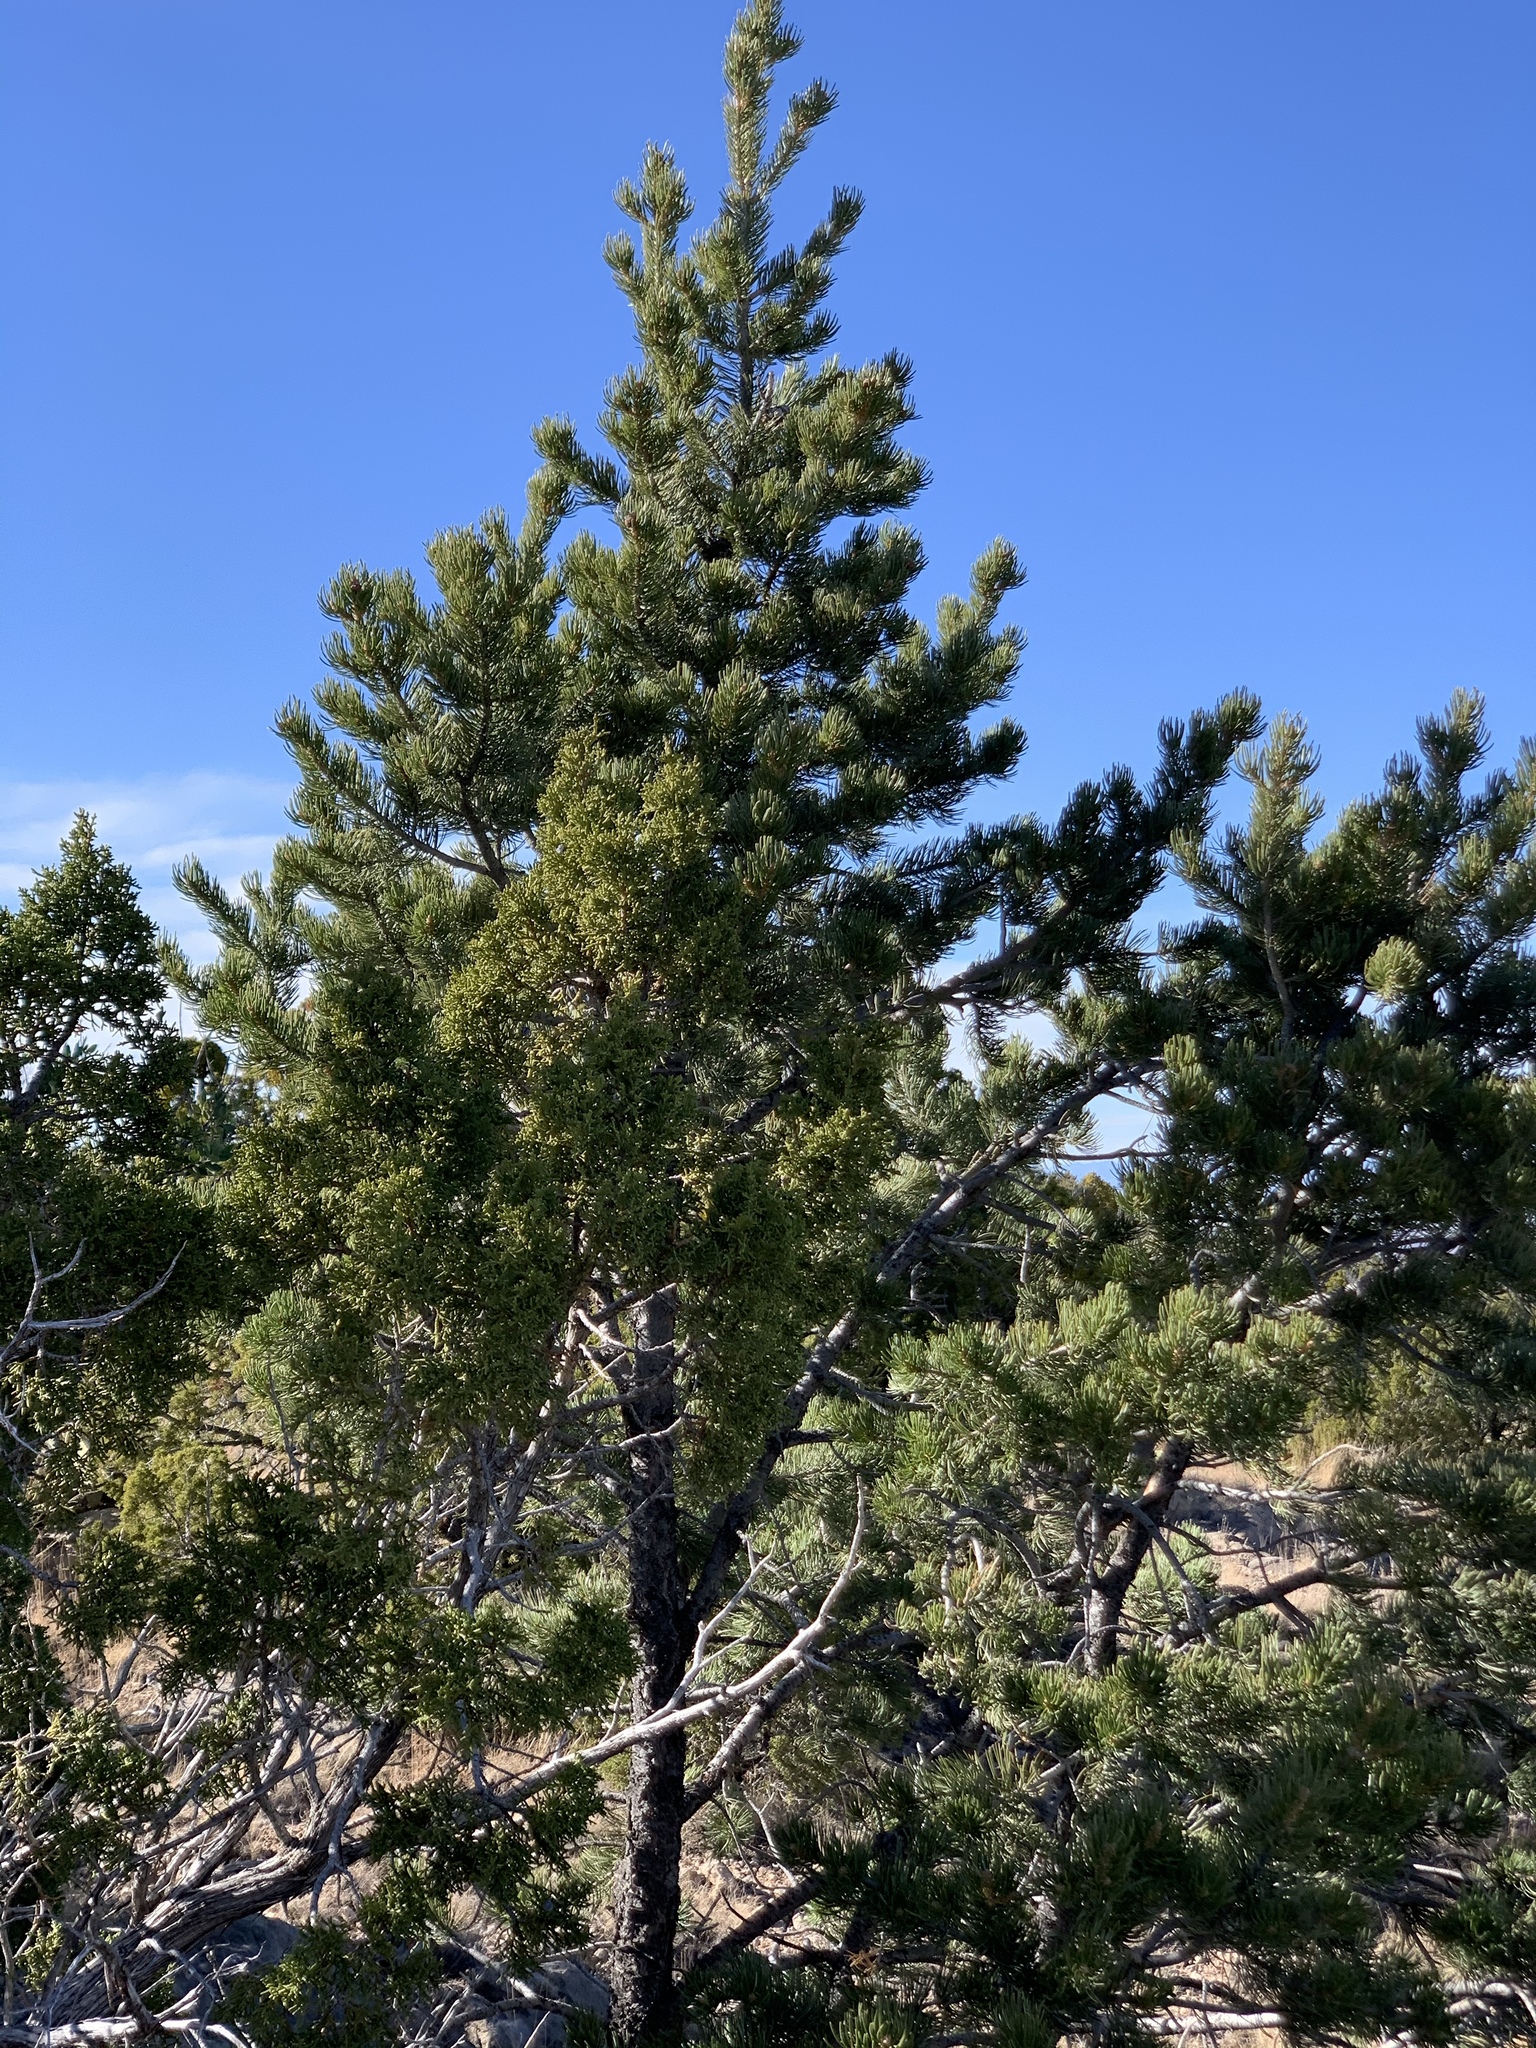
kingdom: Plantae
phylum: Tracheophyta
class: Pinopsida
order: Pinales
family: Pinaceae
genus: Pinus
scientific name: Pinus edulis
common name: Colorado pinyon
